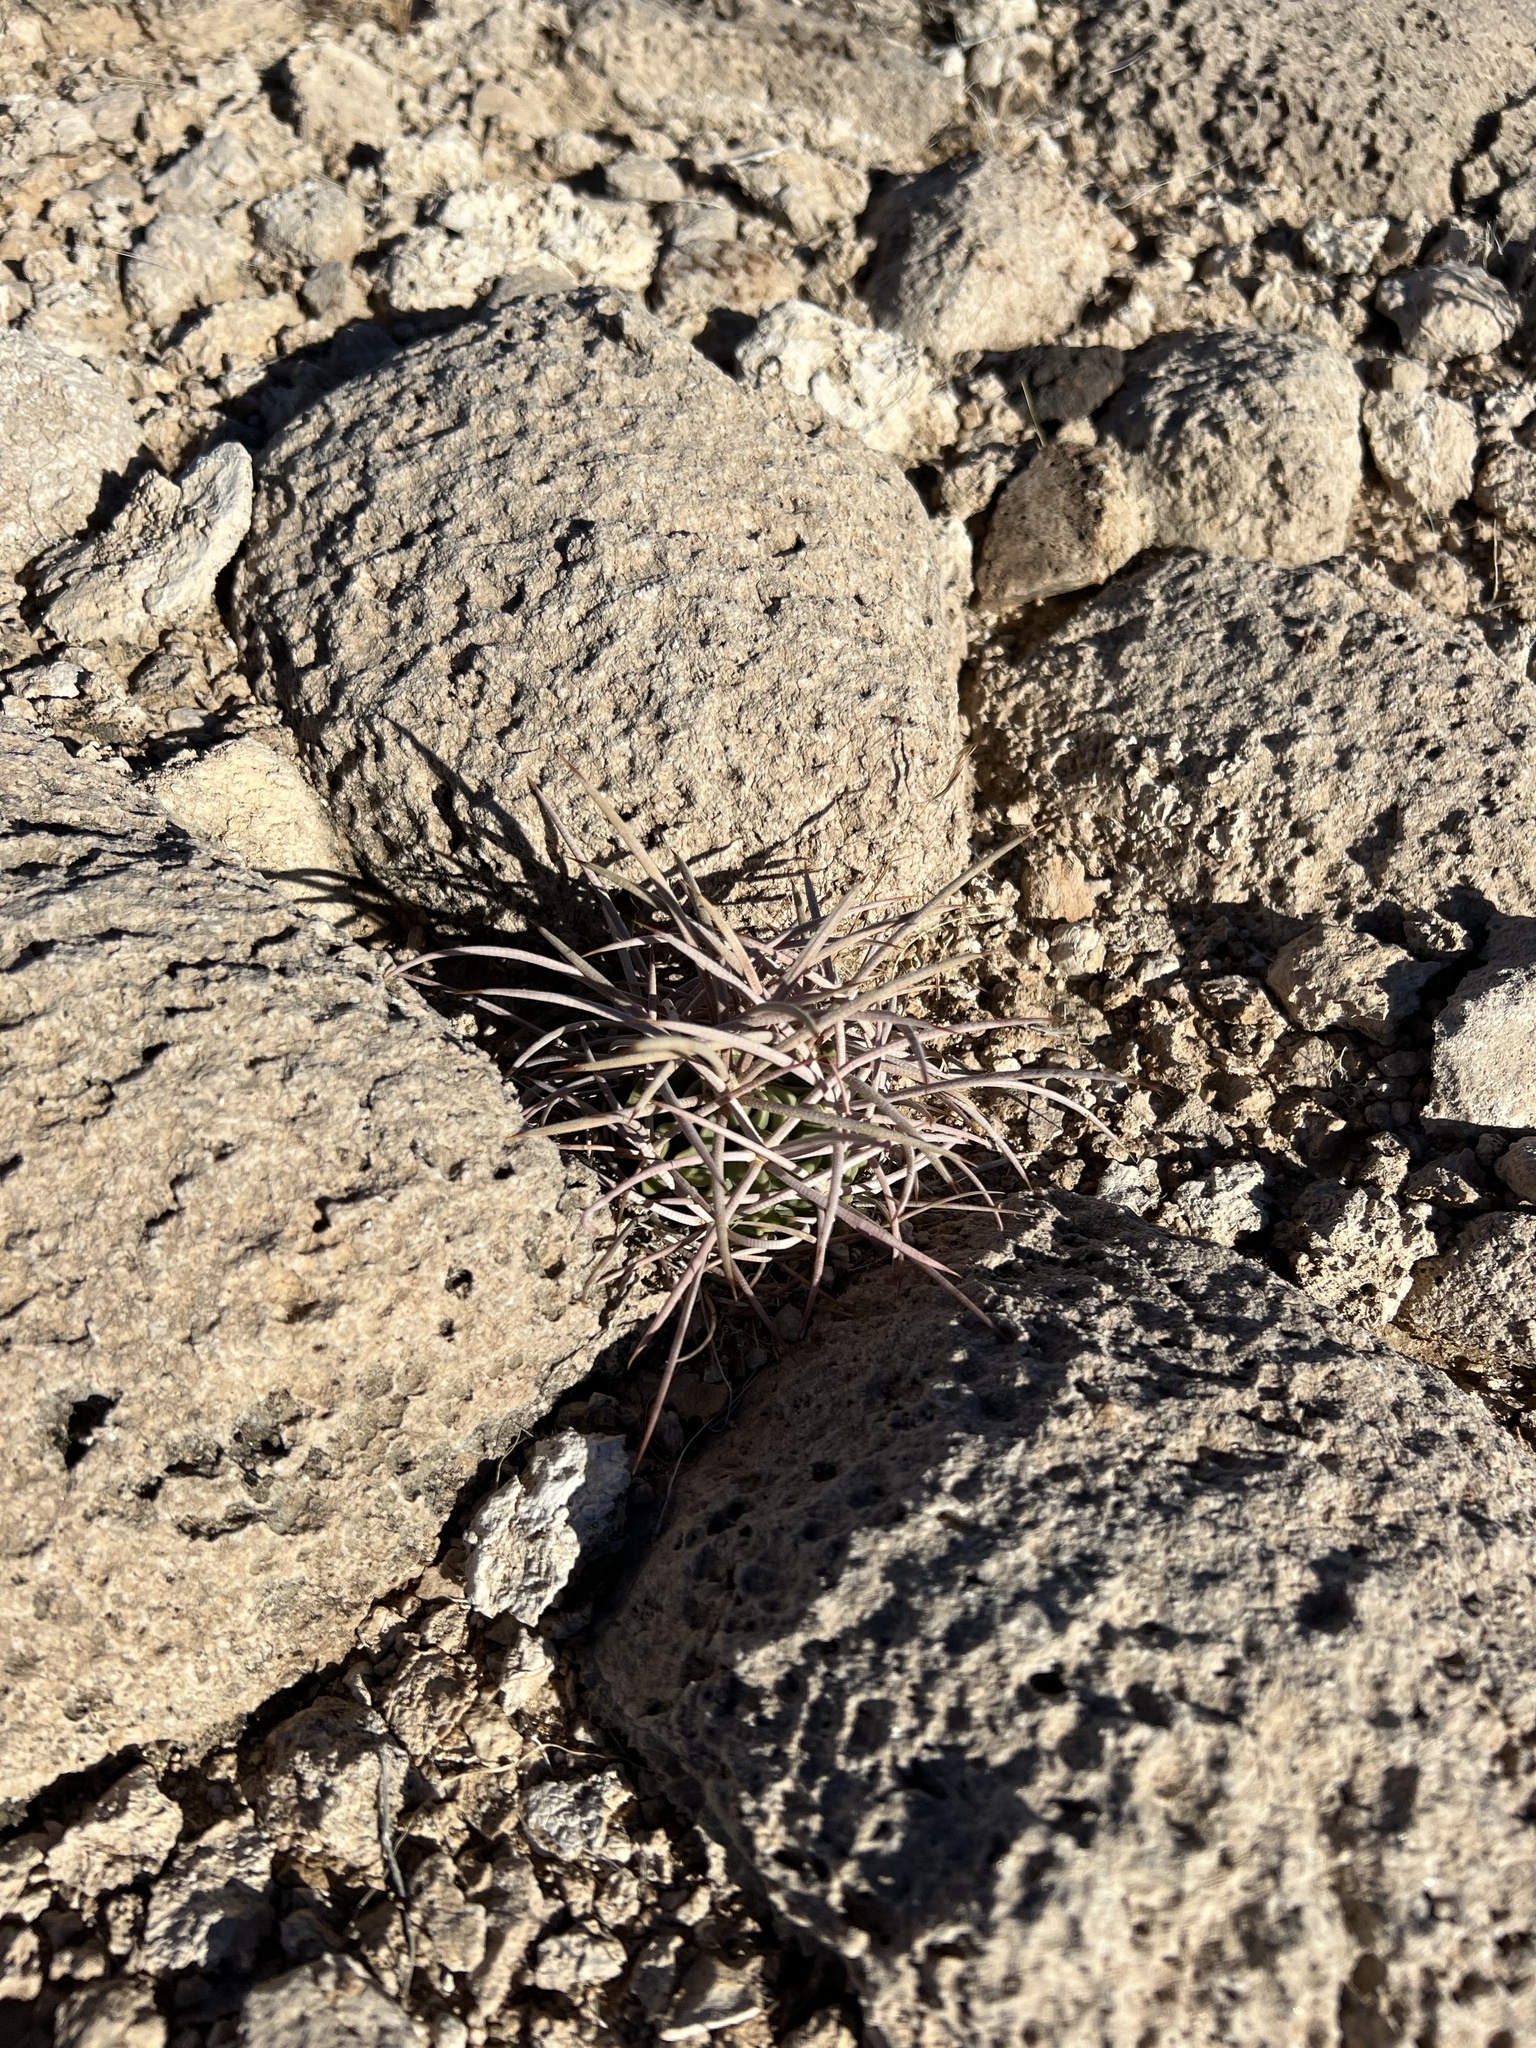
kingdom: Plantae
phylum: Tracheophyta
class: Magnoliopsida
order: Caryophyllales
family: Cactaceae
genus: Echinocactus
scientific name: Echinocactus polycephalus
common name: Cottontop cactus
